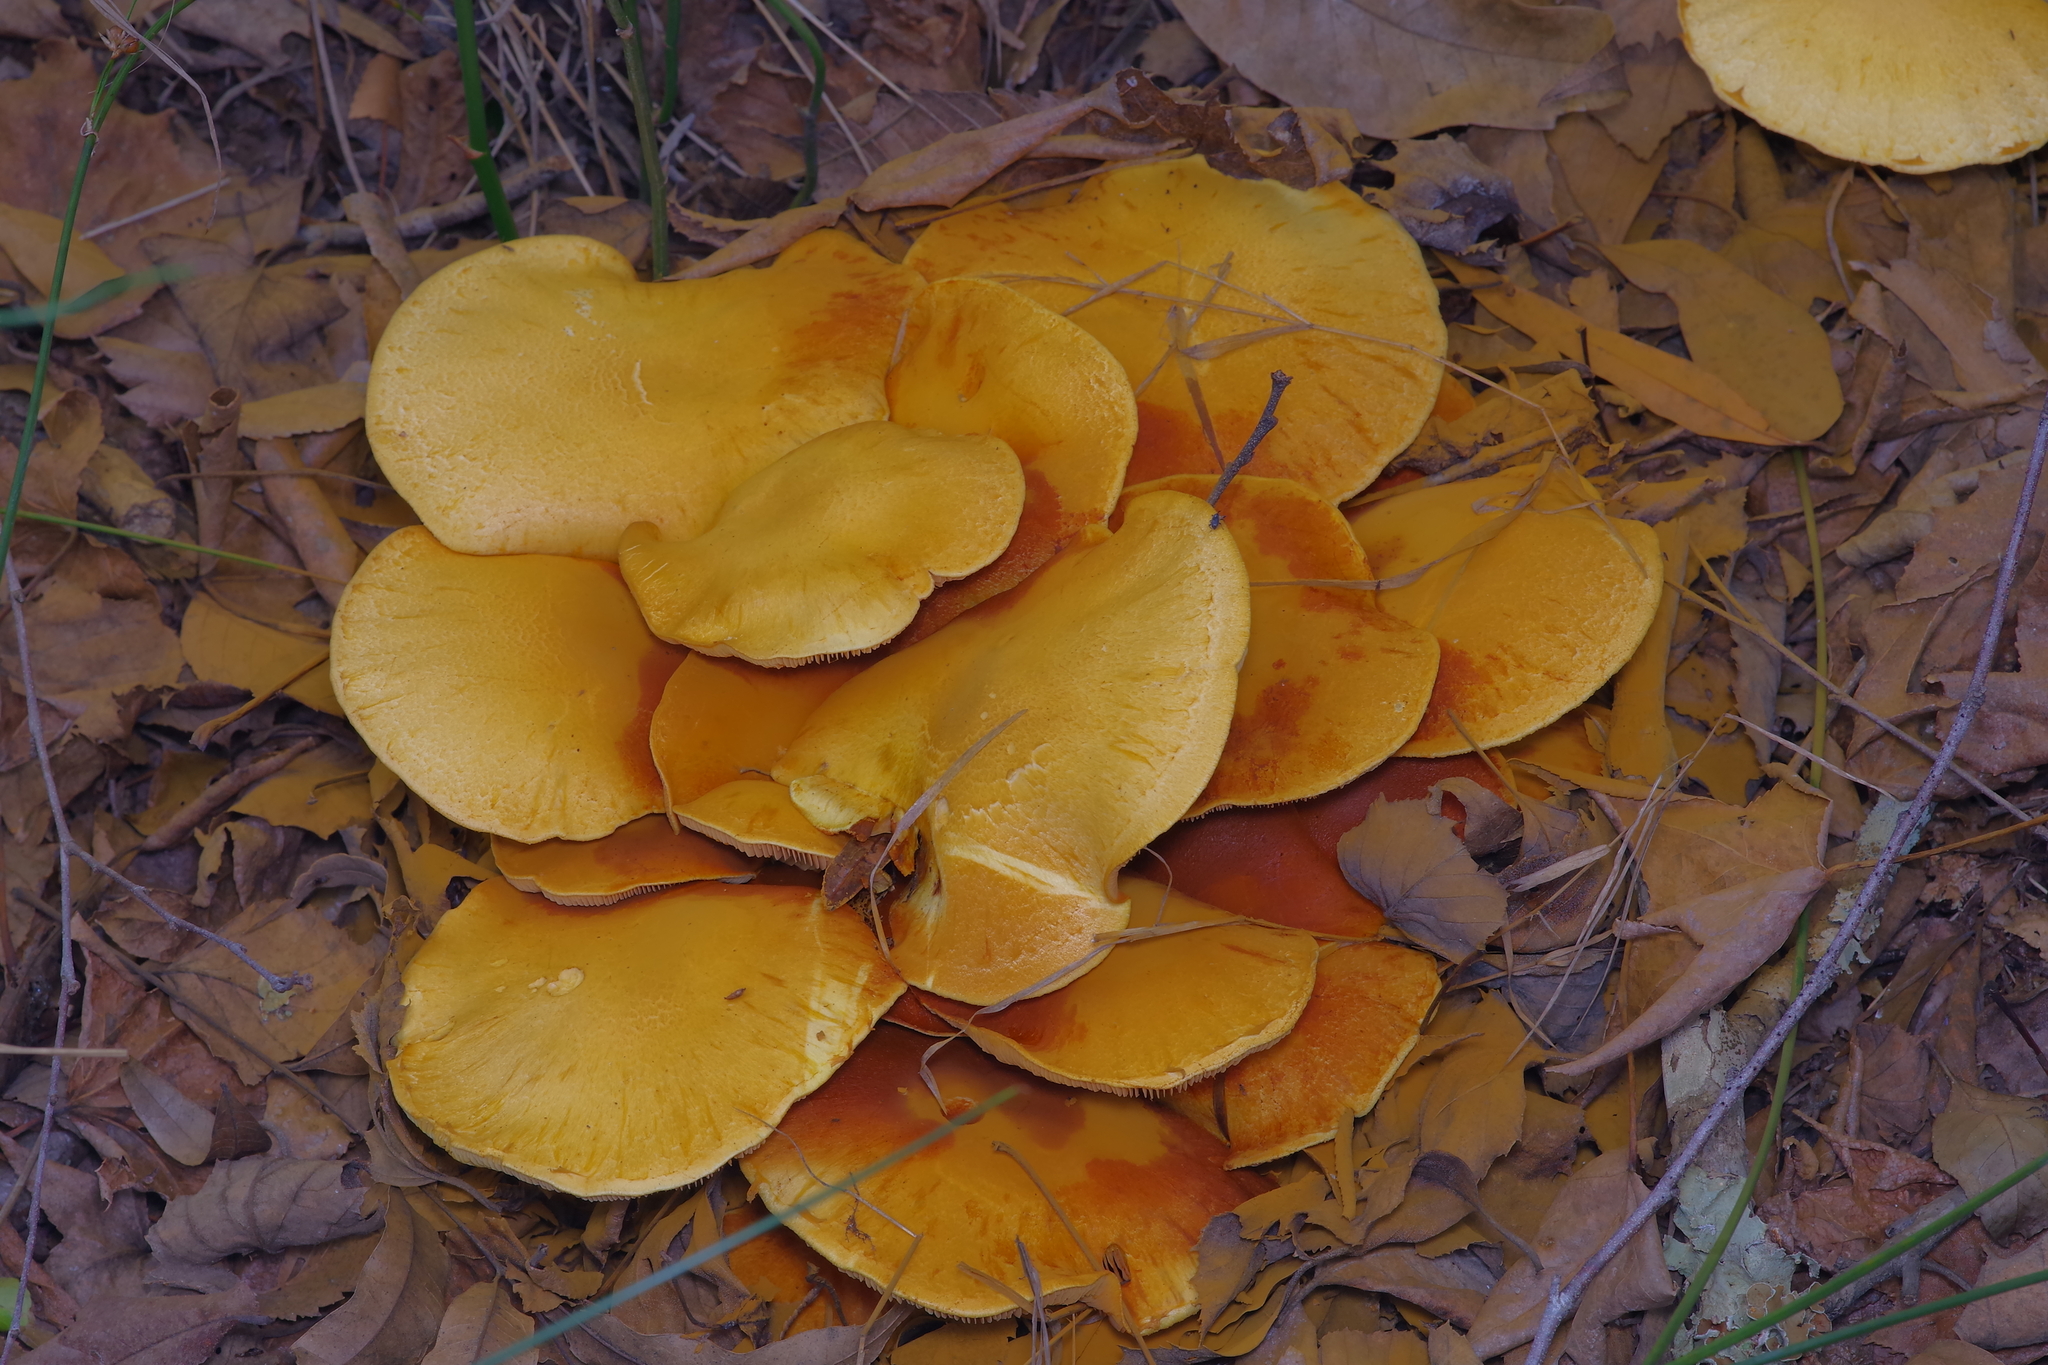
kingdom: Fungi
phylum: Basidiomycota
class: Agaricomycetes
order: Agaricales
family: Hymenogastraceae
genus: Gymnopilus
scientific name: Gymnopilus subspectabilis
